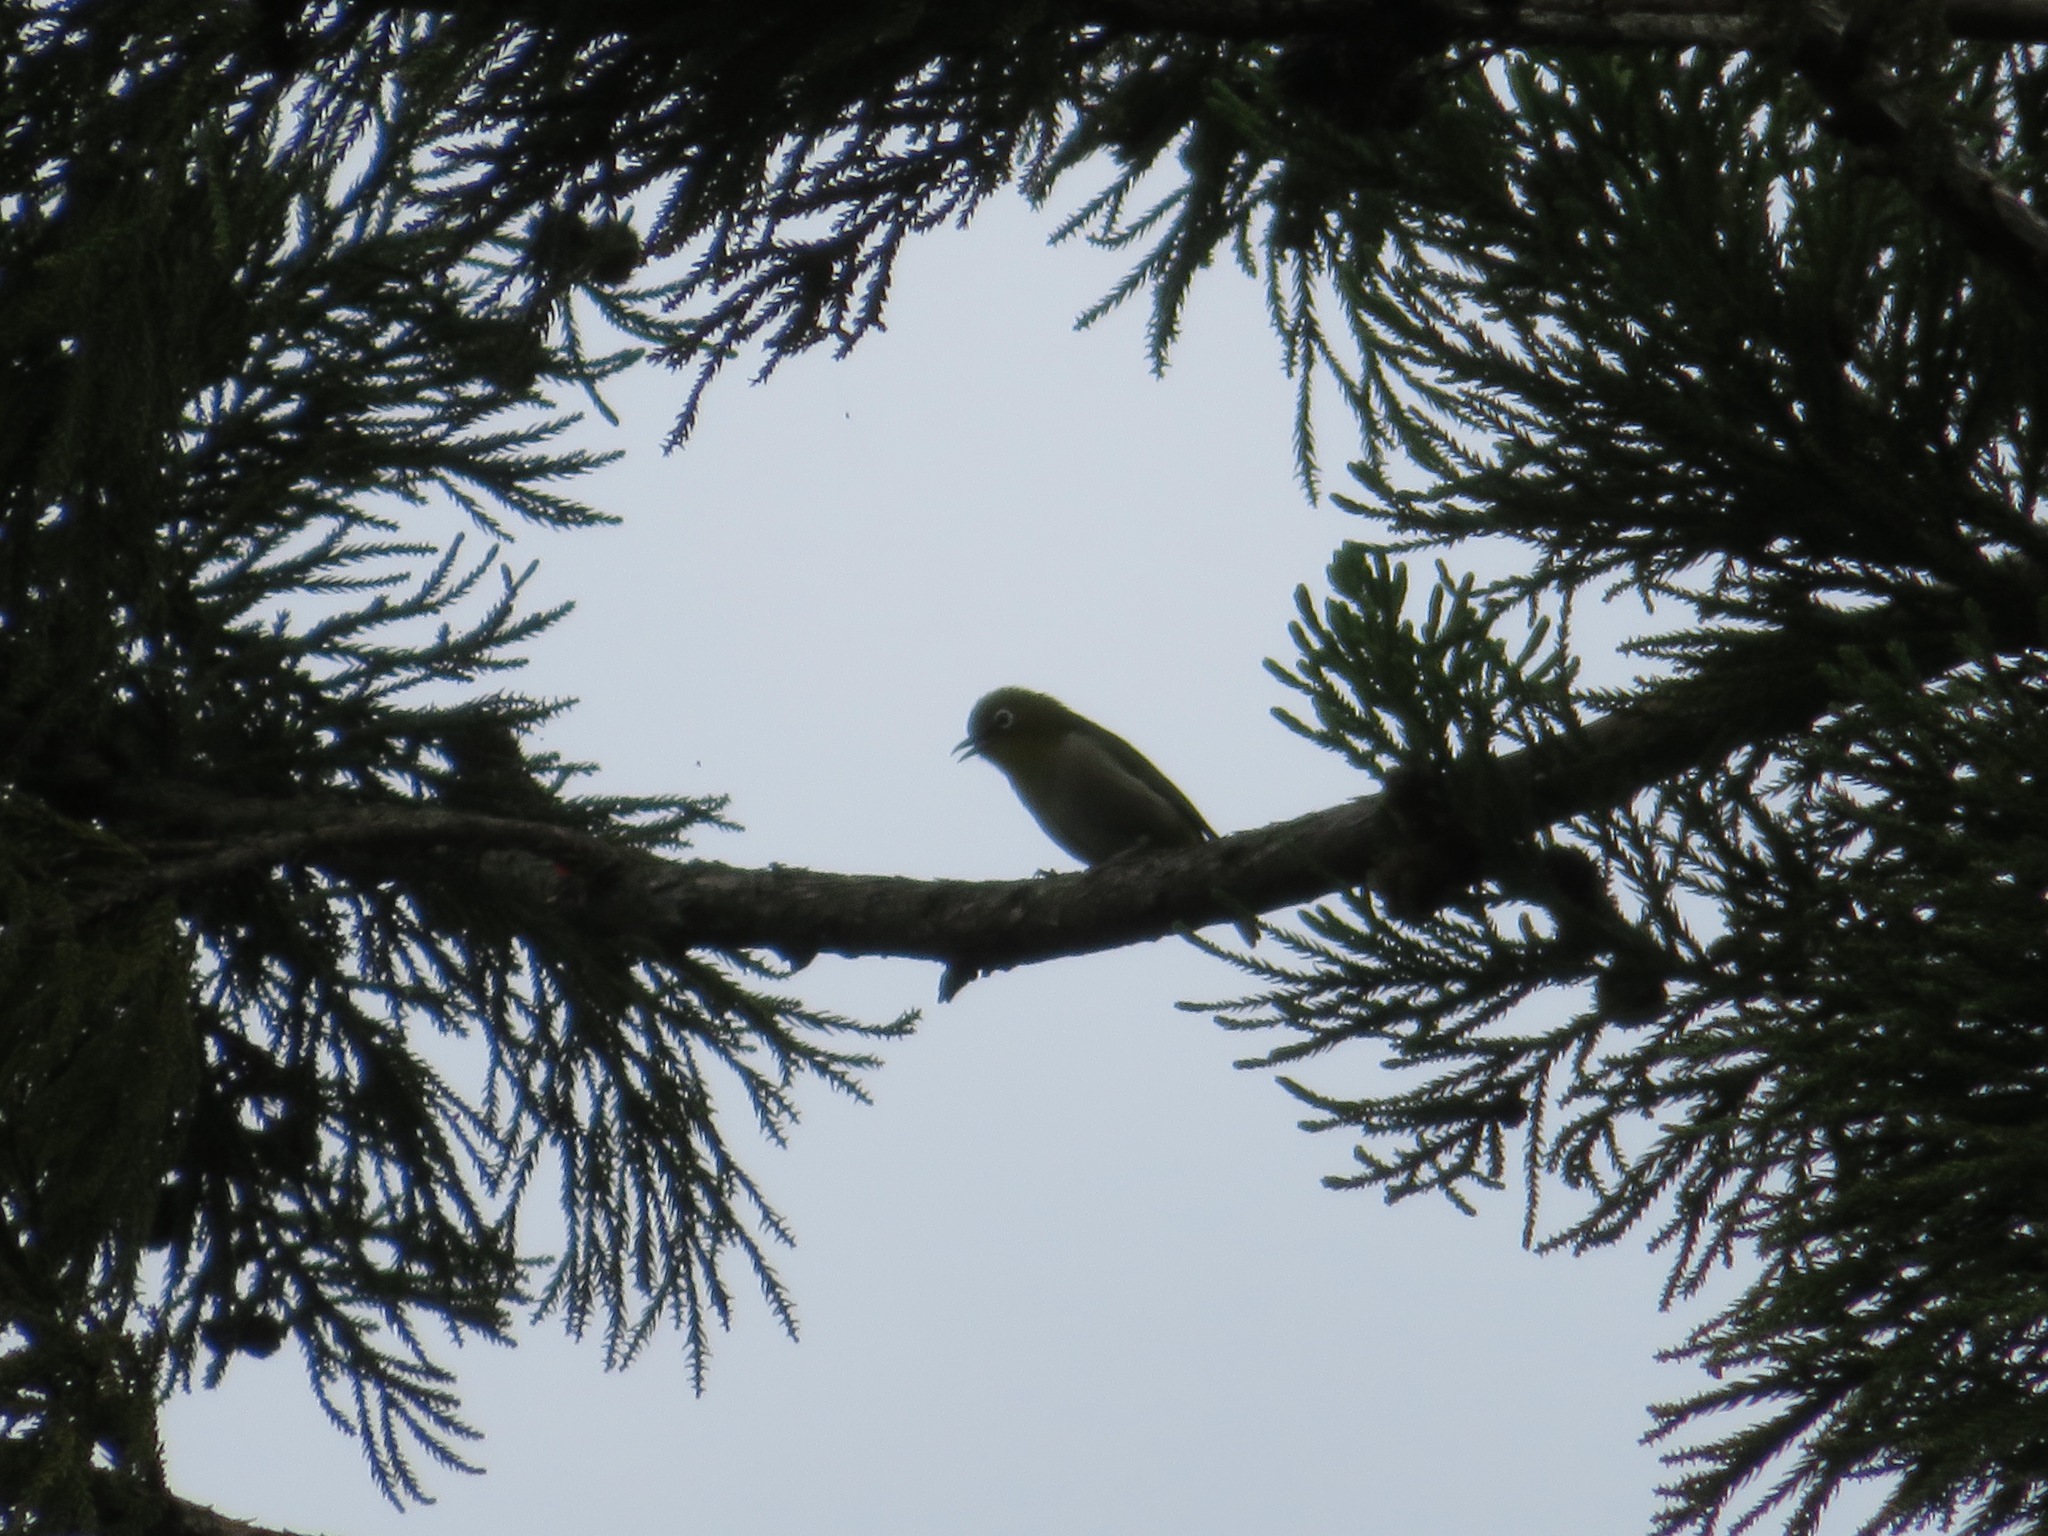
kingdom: Animalia
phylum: Chordata
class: Aves
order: Passeriformes
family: Zosteropidae
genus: Zosterops
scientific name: Zosterops japonicus
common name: Japanese white-eye
